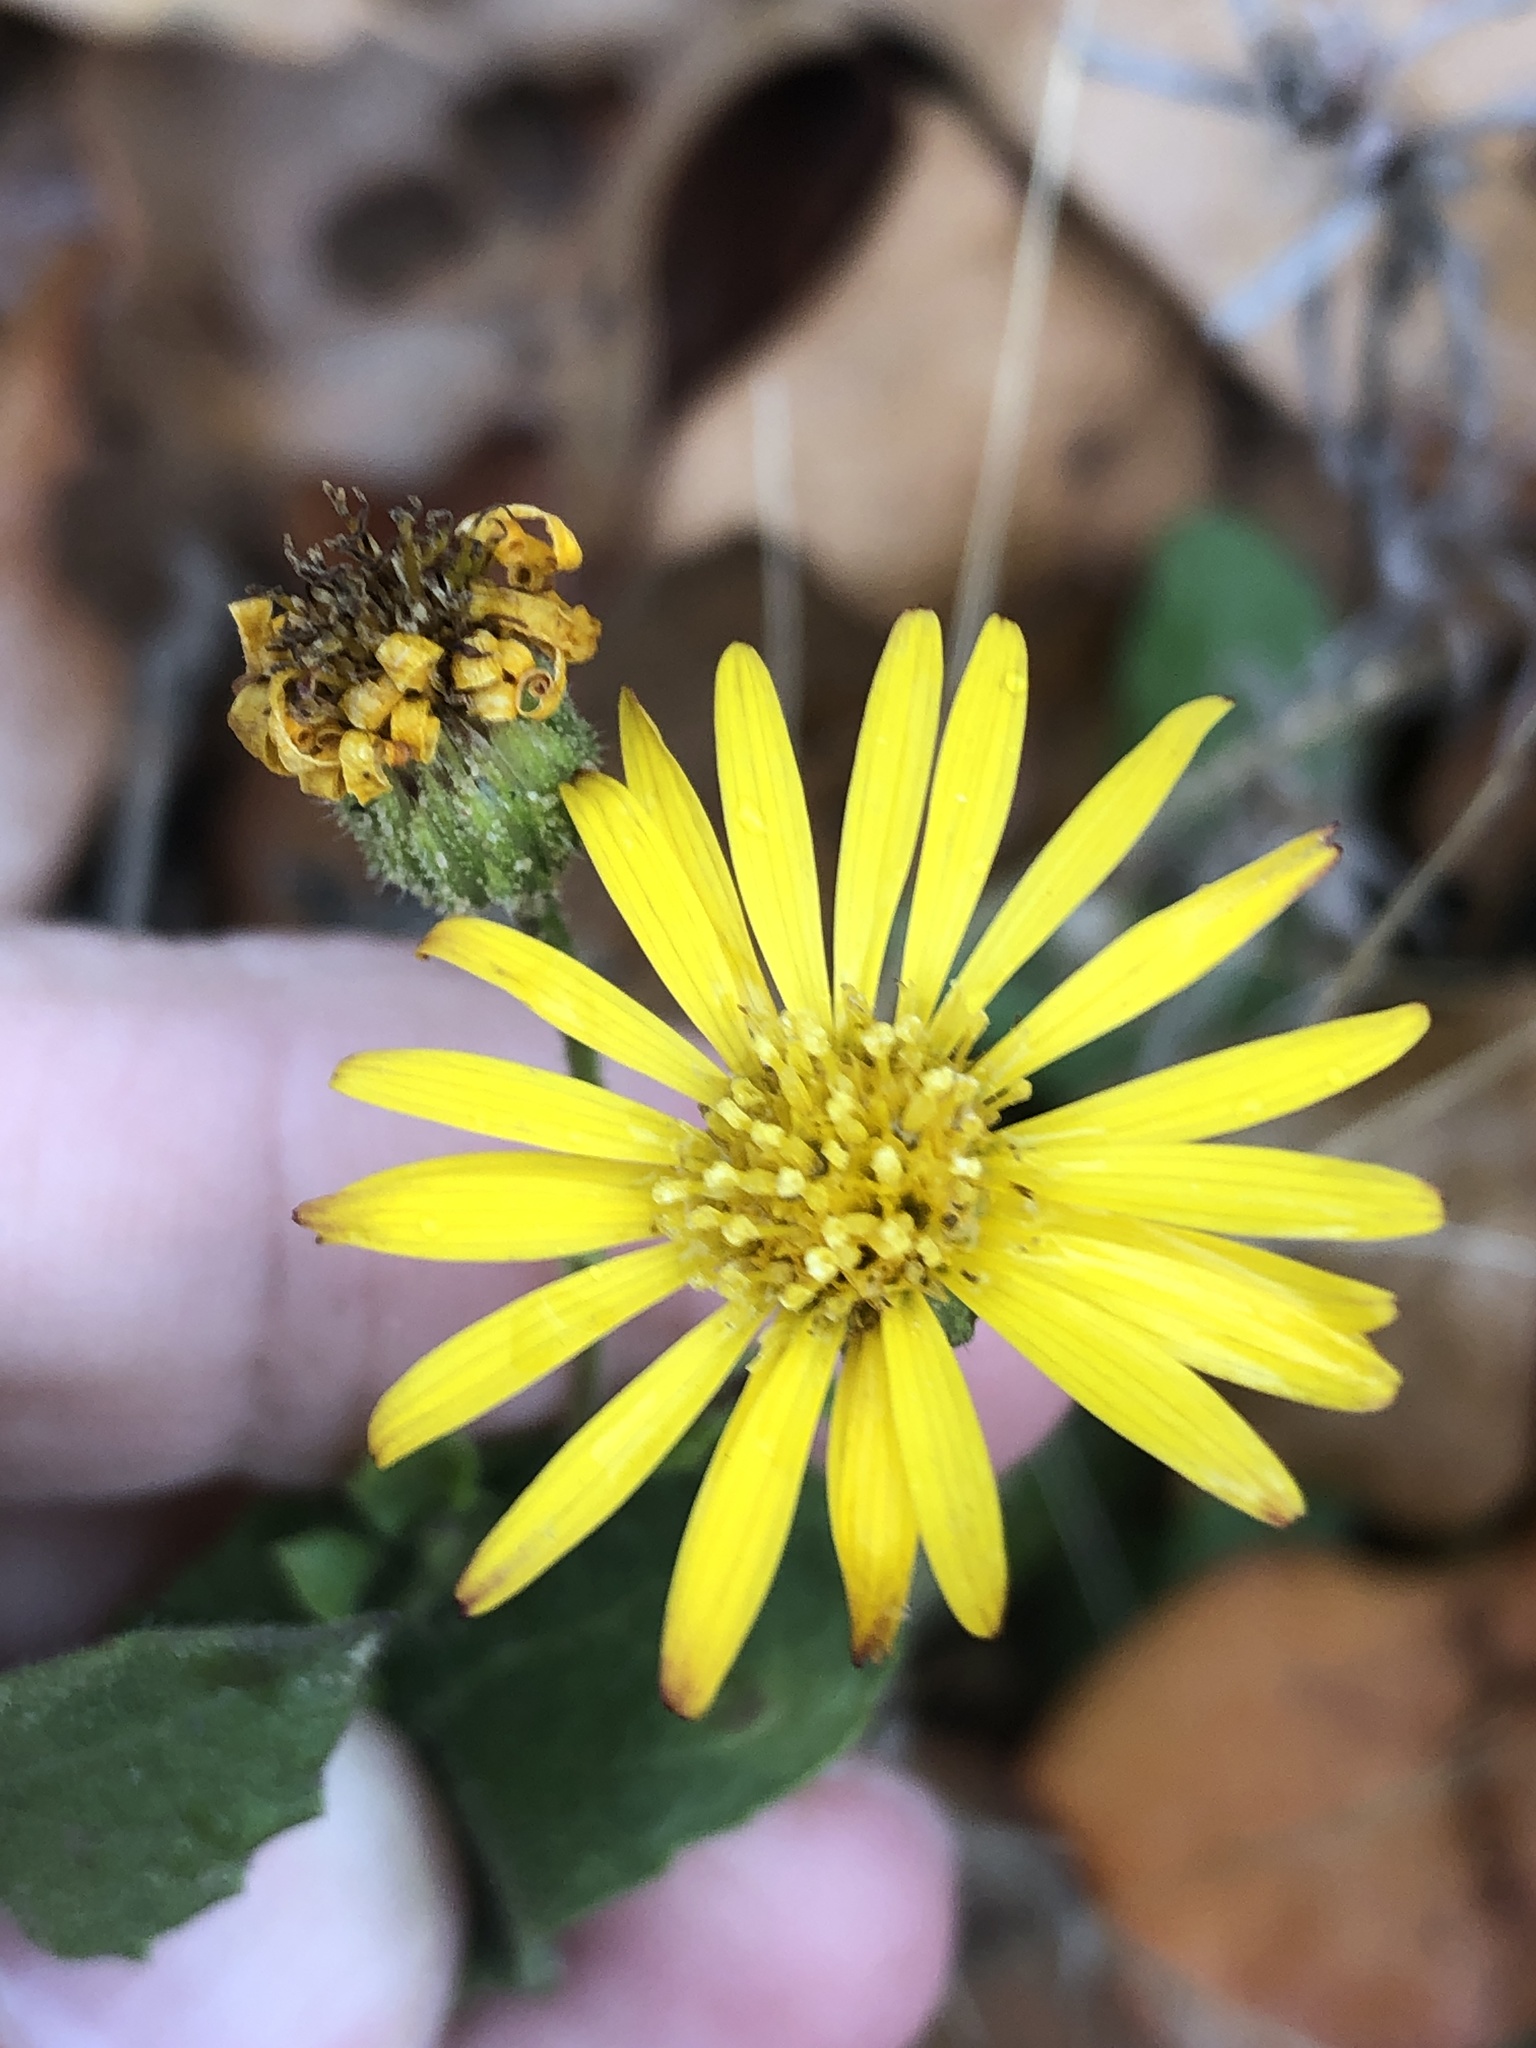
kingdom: Plantae
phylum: Tracheophyta
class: Magnoliopsida
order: Asterales
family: Asteraceae
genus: Heterotheca
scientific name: Heterotheca subaxillaris
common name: Camphorweed
